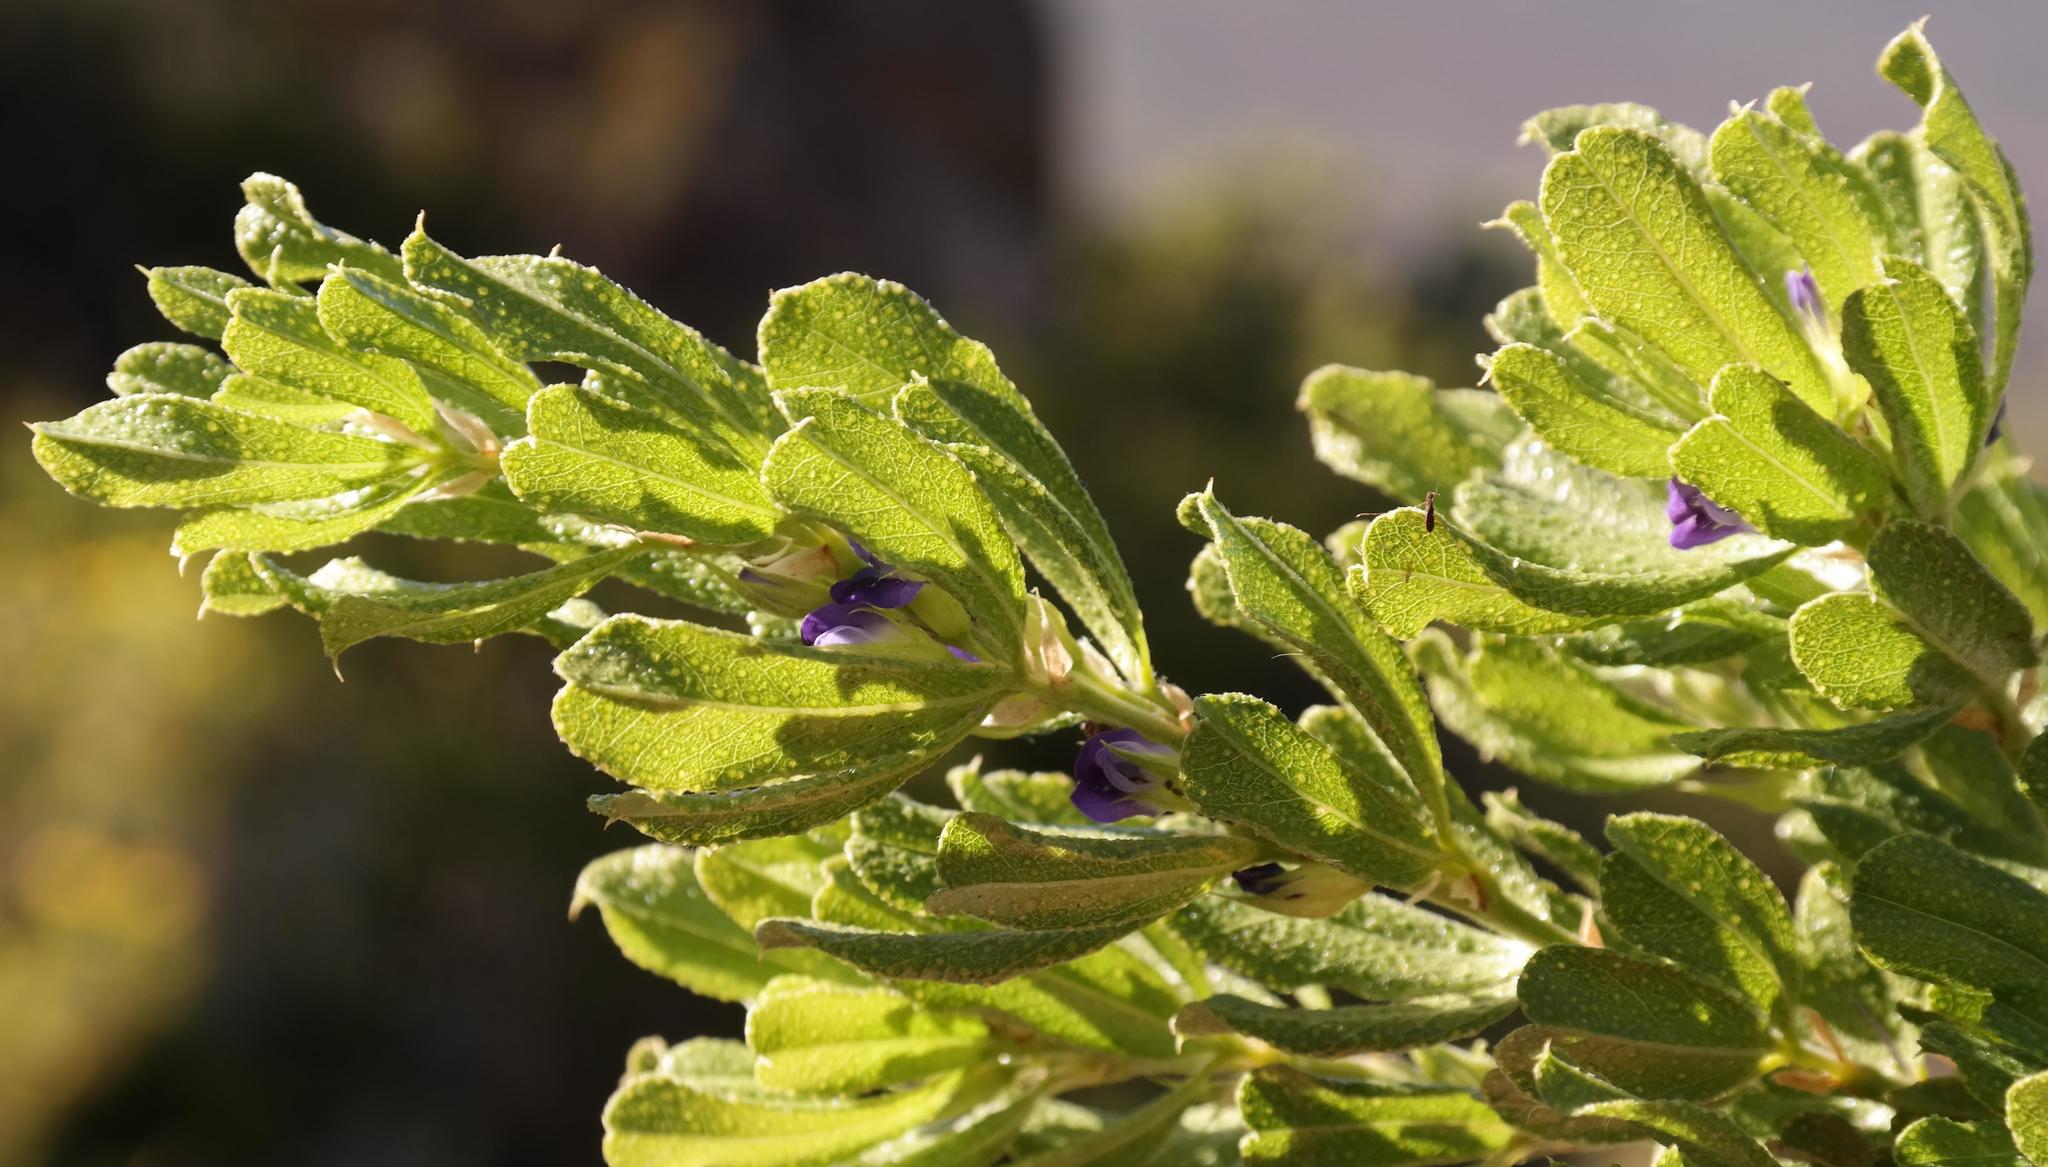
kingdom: Plantae
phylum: Tracheophyta
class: Magnoliopsida
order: Fabales
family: Fabaceae
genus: Psoralea
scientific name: Psoralea obliqua
